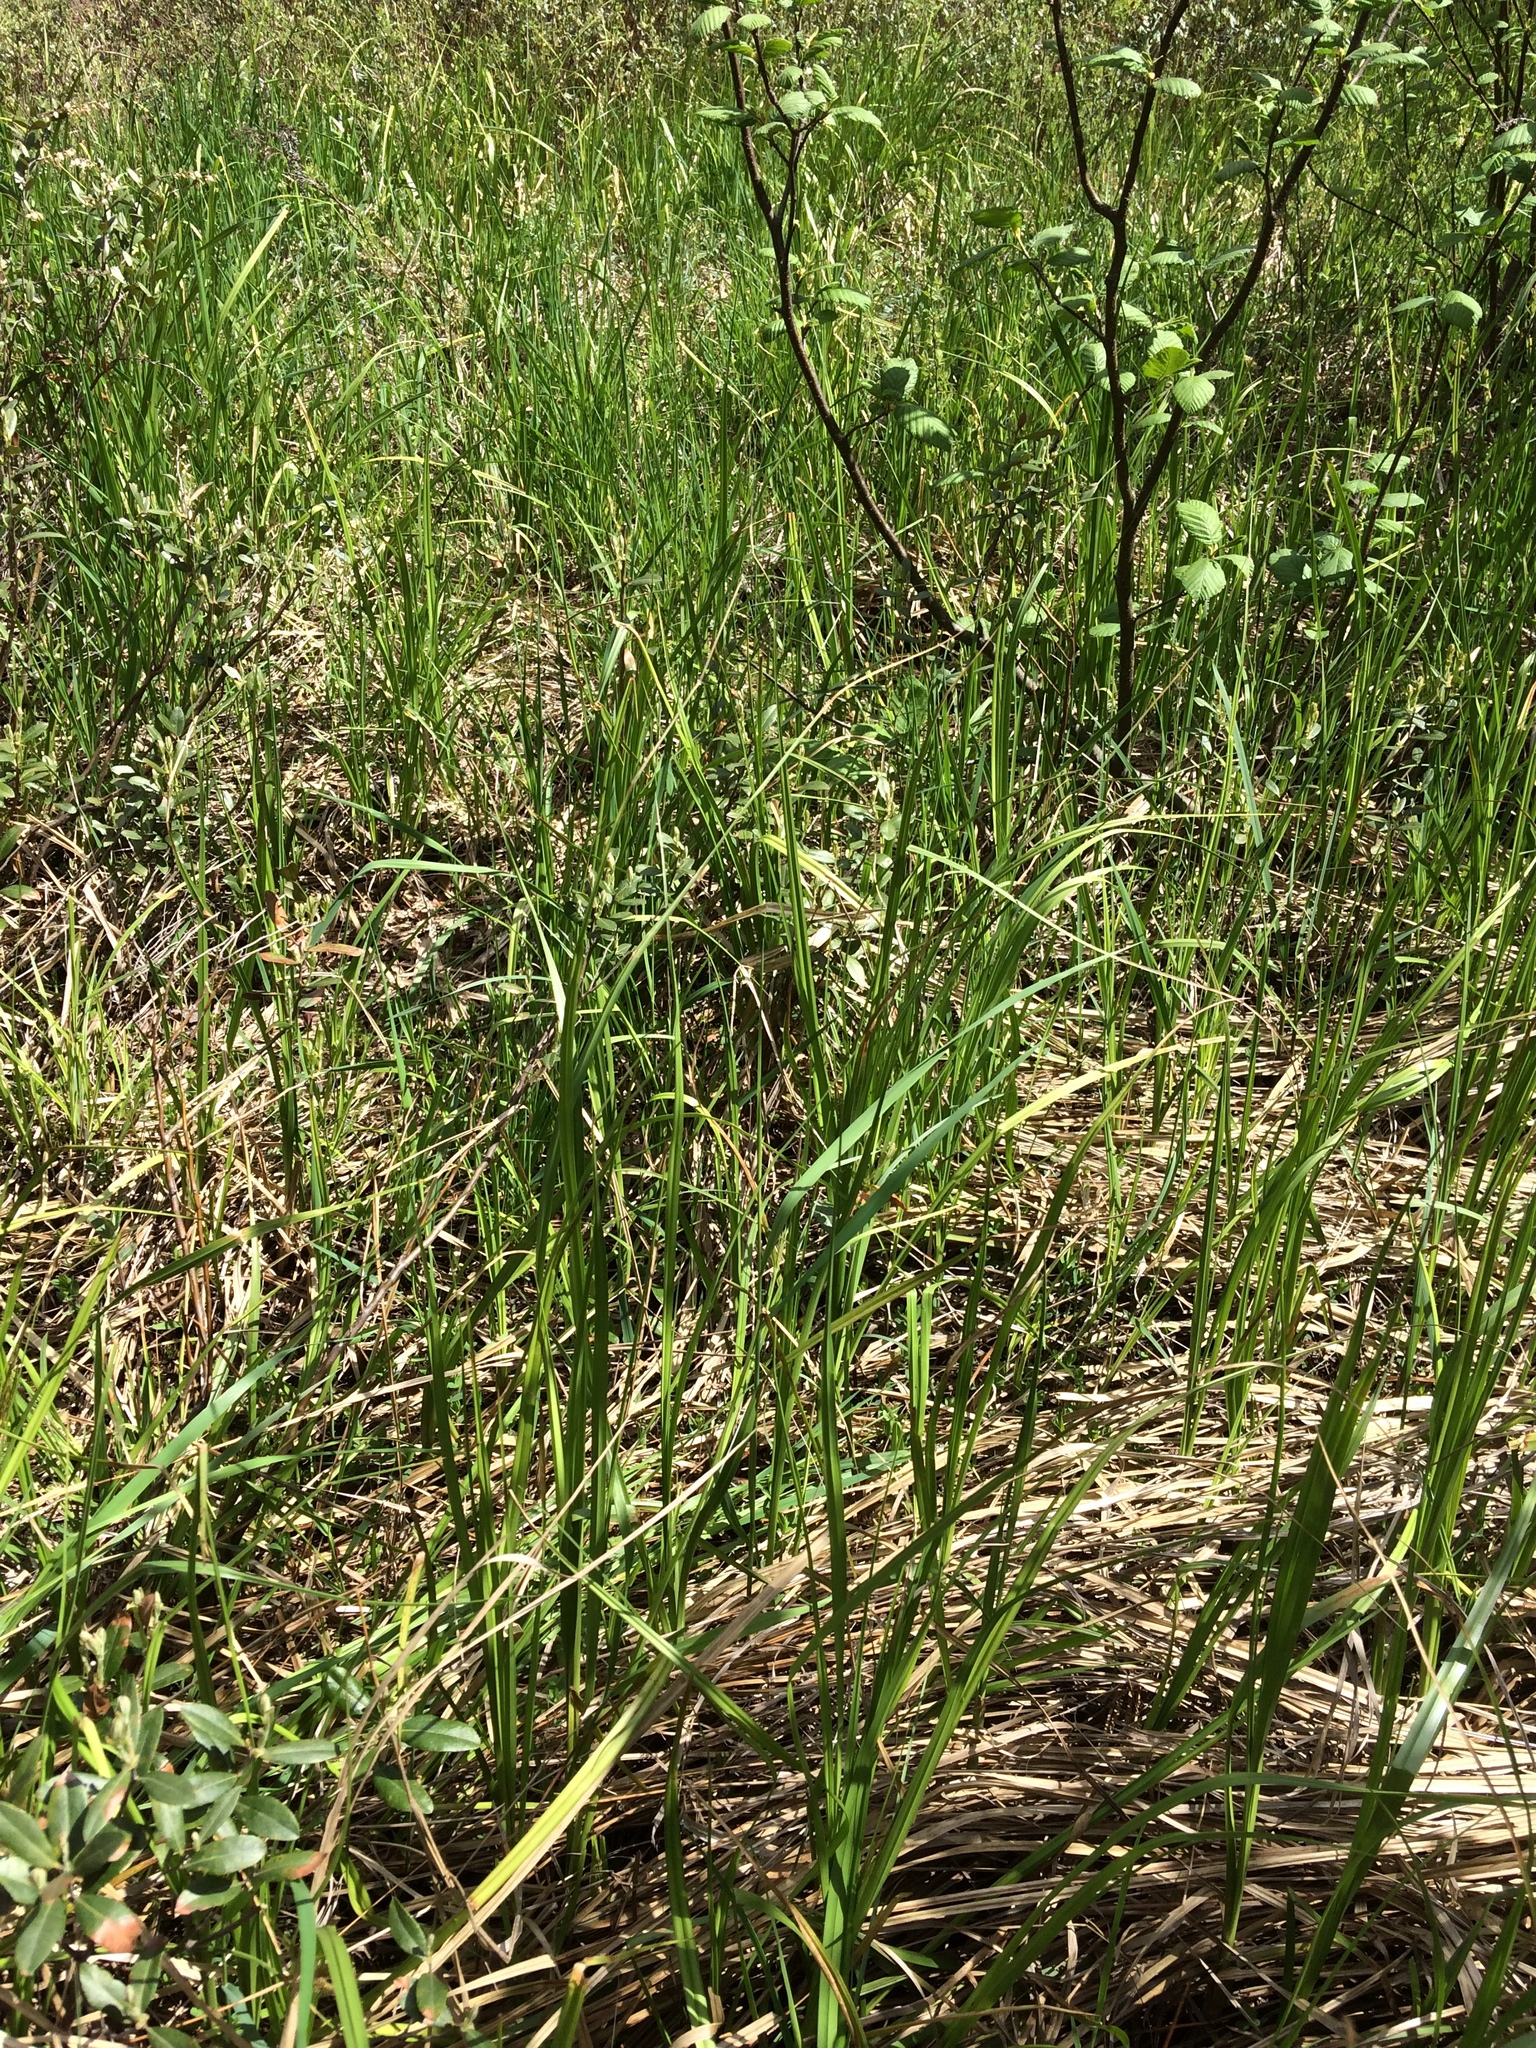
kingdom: Plantae
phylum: Tracheophyta
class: Liliopsida
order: Poales
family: Cyperaceae
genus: Carex
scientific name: Carex utriculata
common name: Beaked sedge
